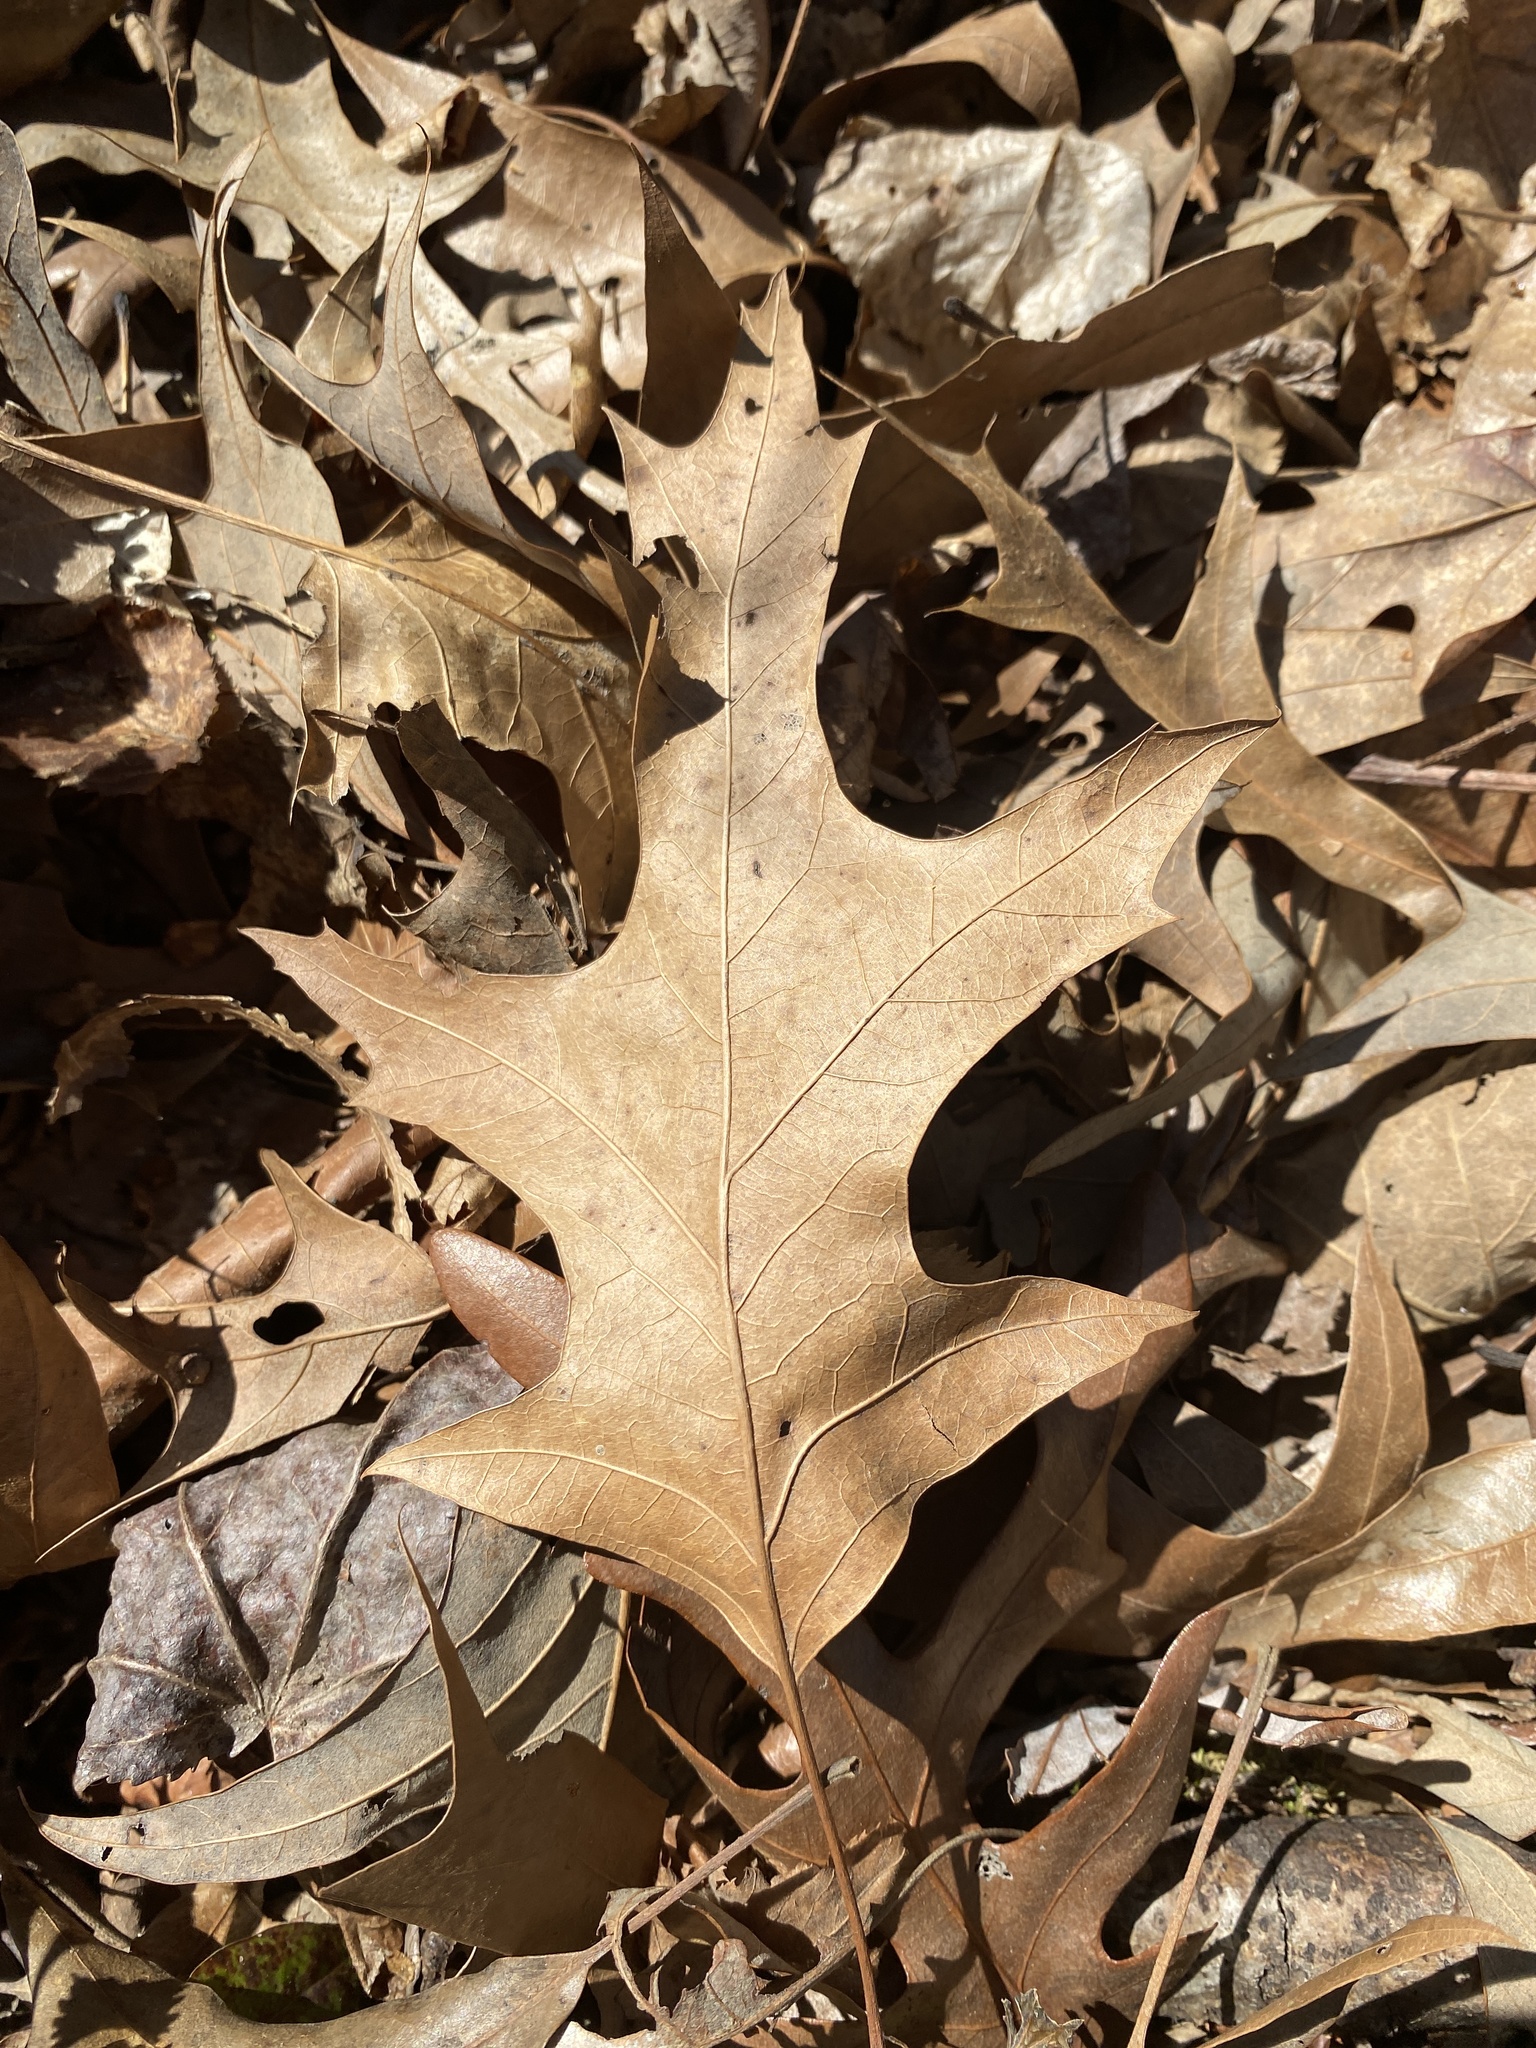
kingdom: Plantae
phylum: Tracheophyta
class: Magnoliopsida
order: Fagales
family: Fagaceae
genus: Quercus
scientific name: Quercus pagoda
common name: Cherrybark oak
